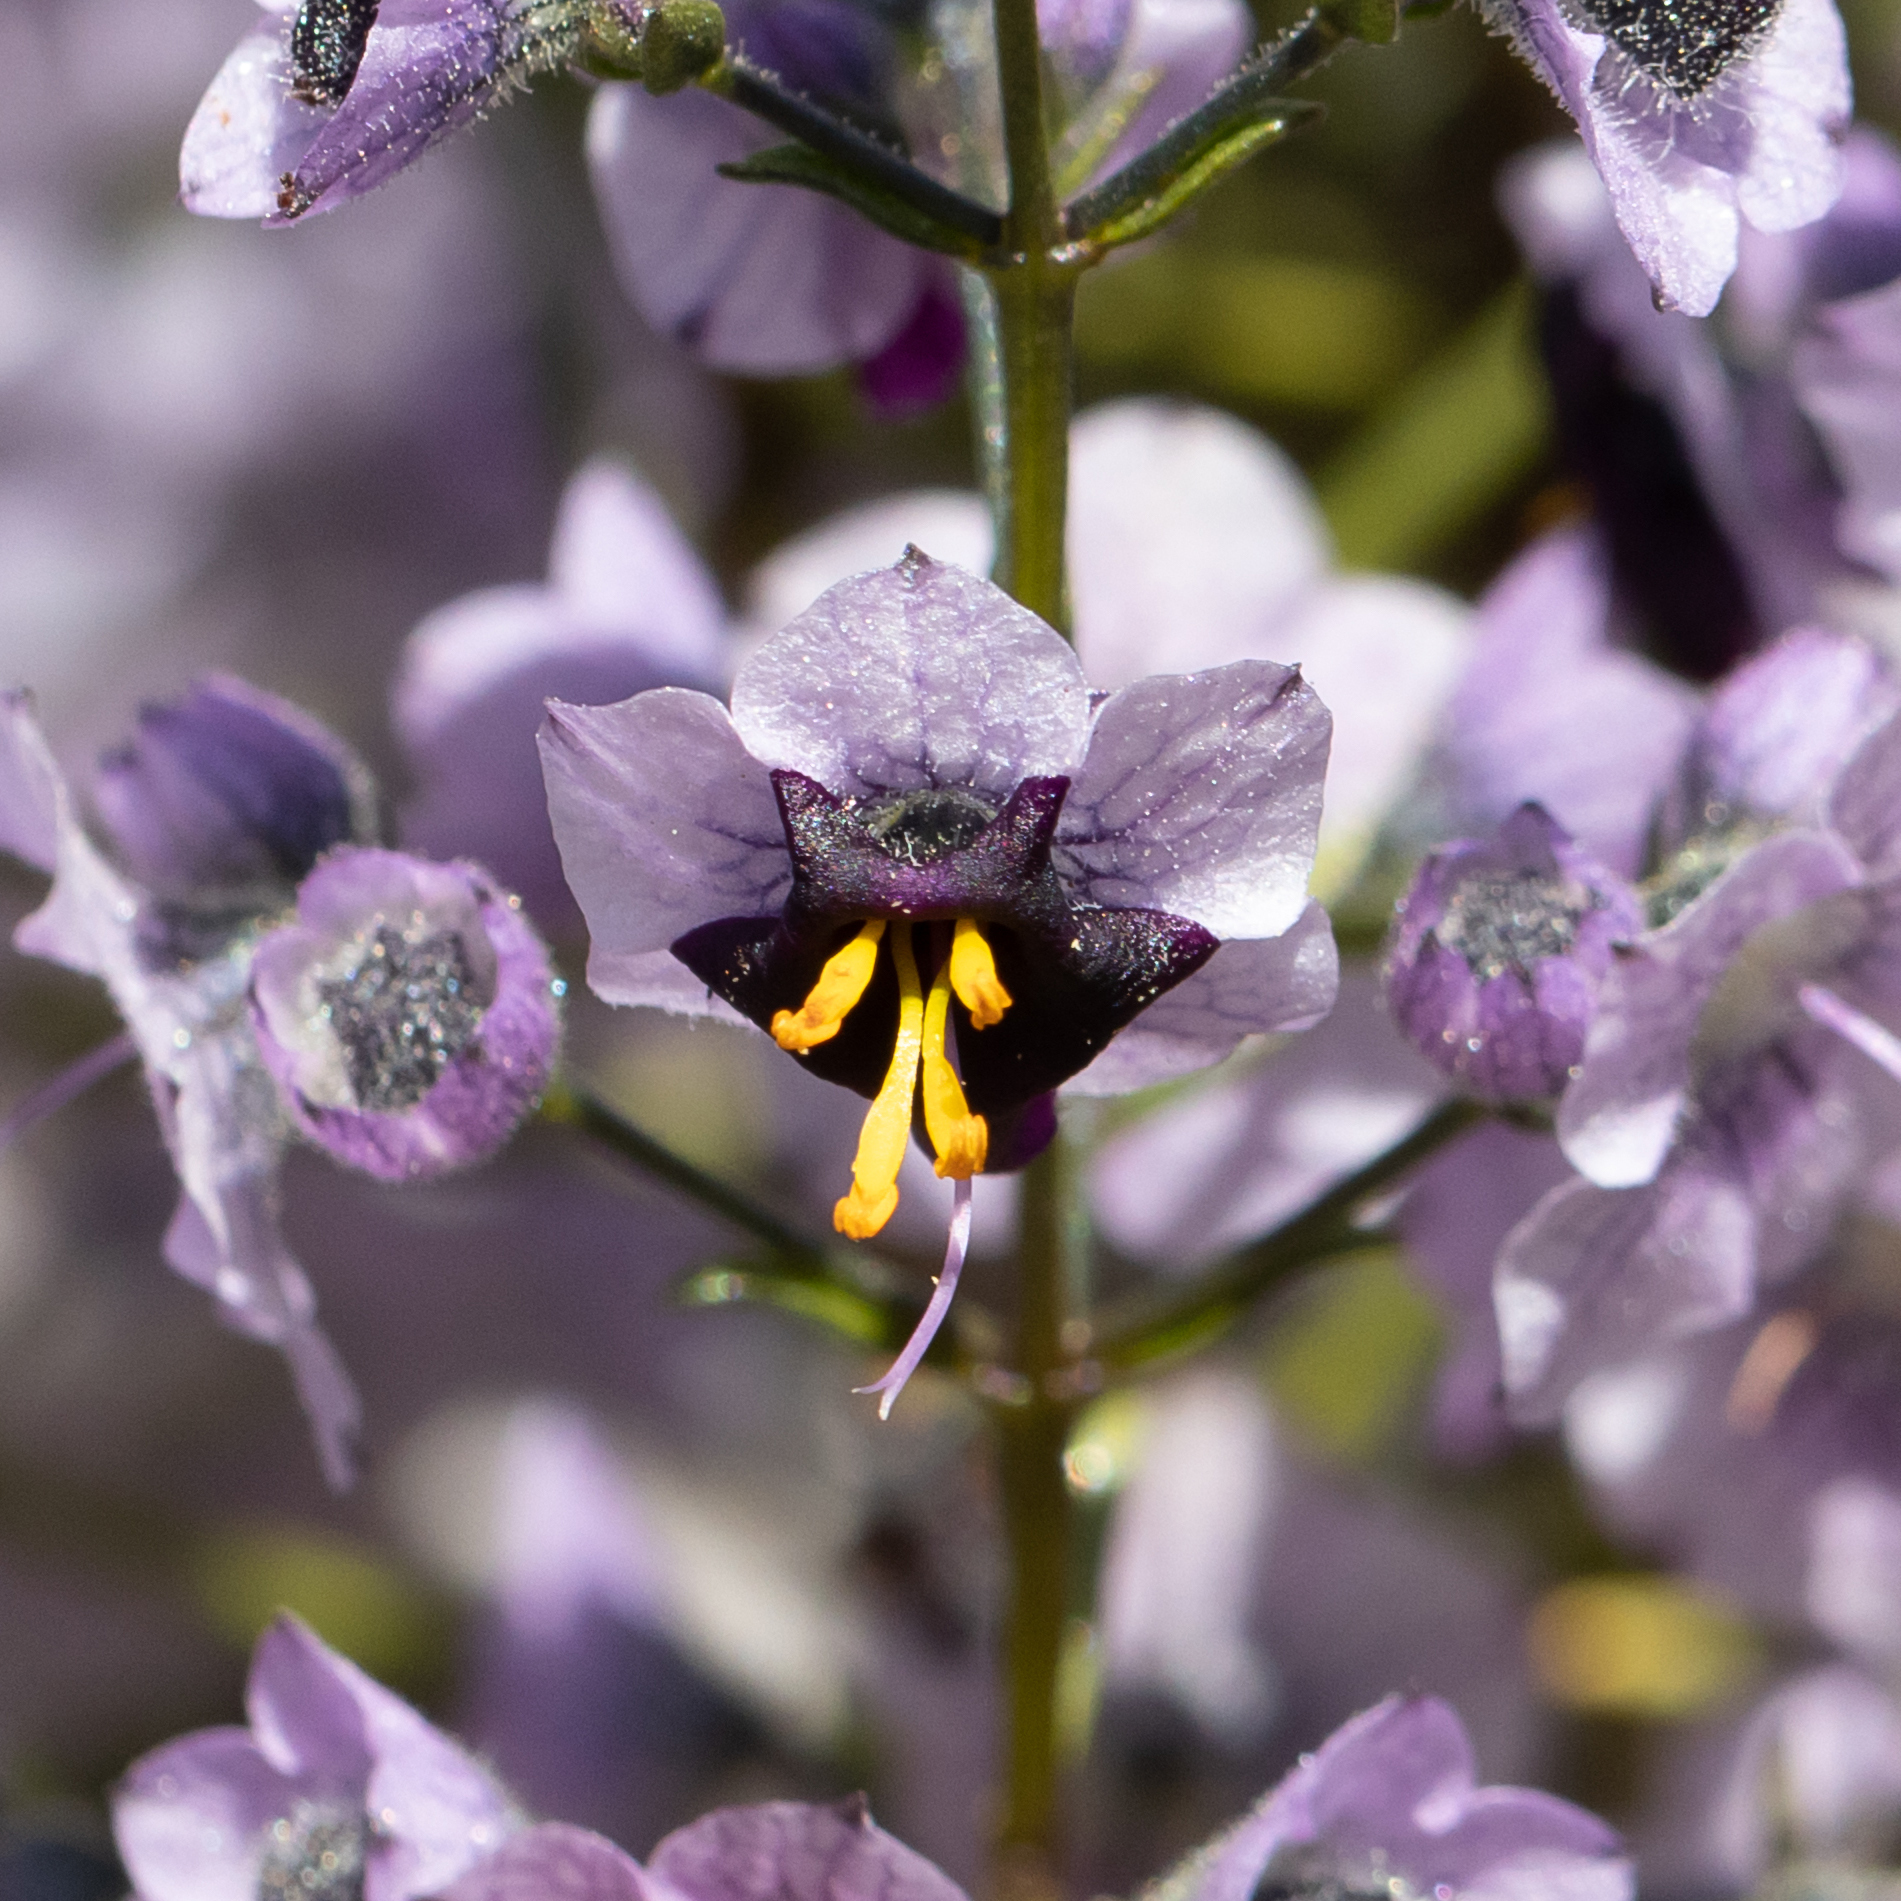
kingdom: Plantae
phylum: Tracheophyta
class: Magnoliopsida
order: Lamiales
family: Lamiaceae
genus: Cyanostegia
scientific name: Cyanostegia angustifolia
